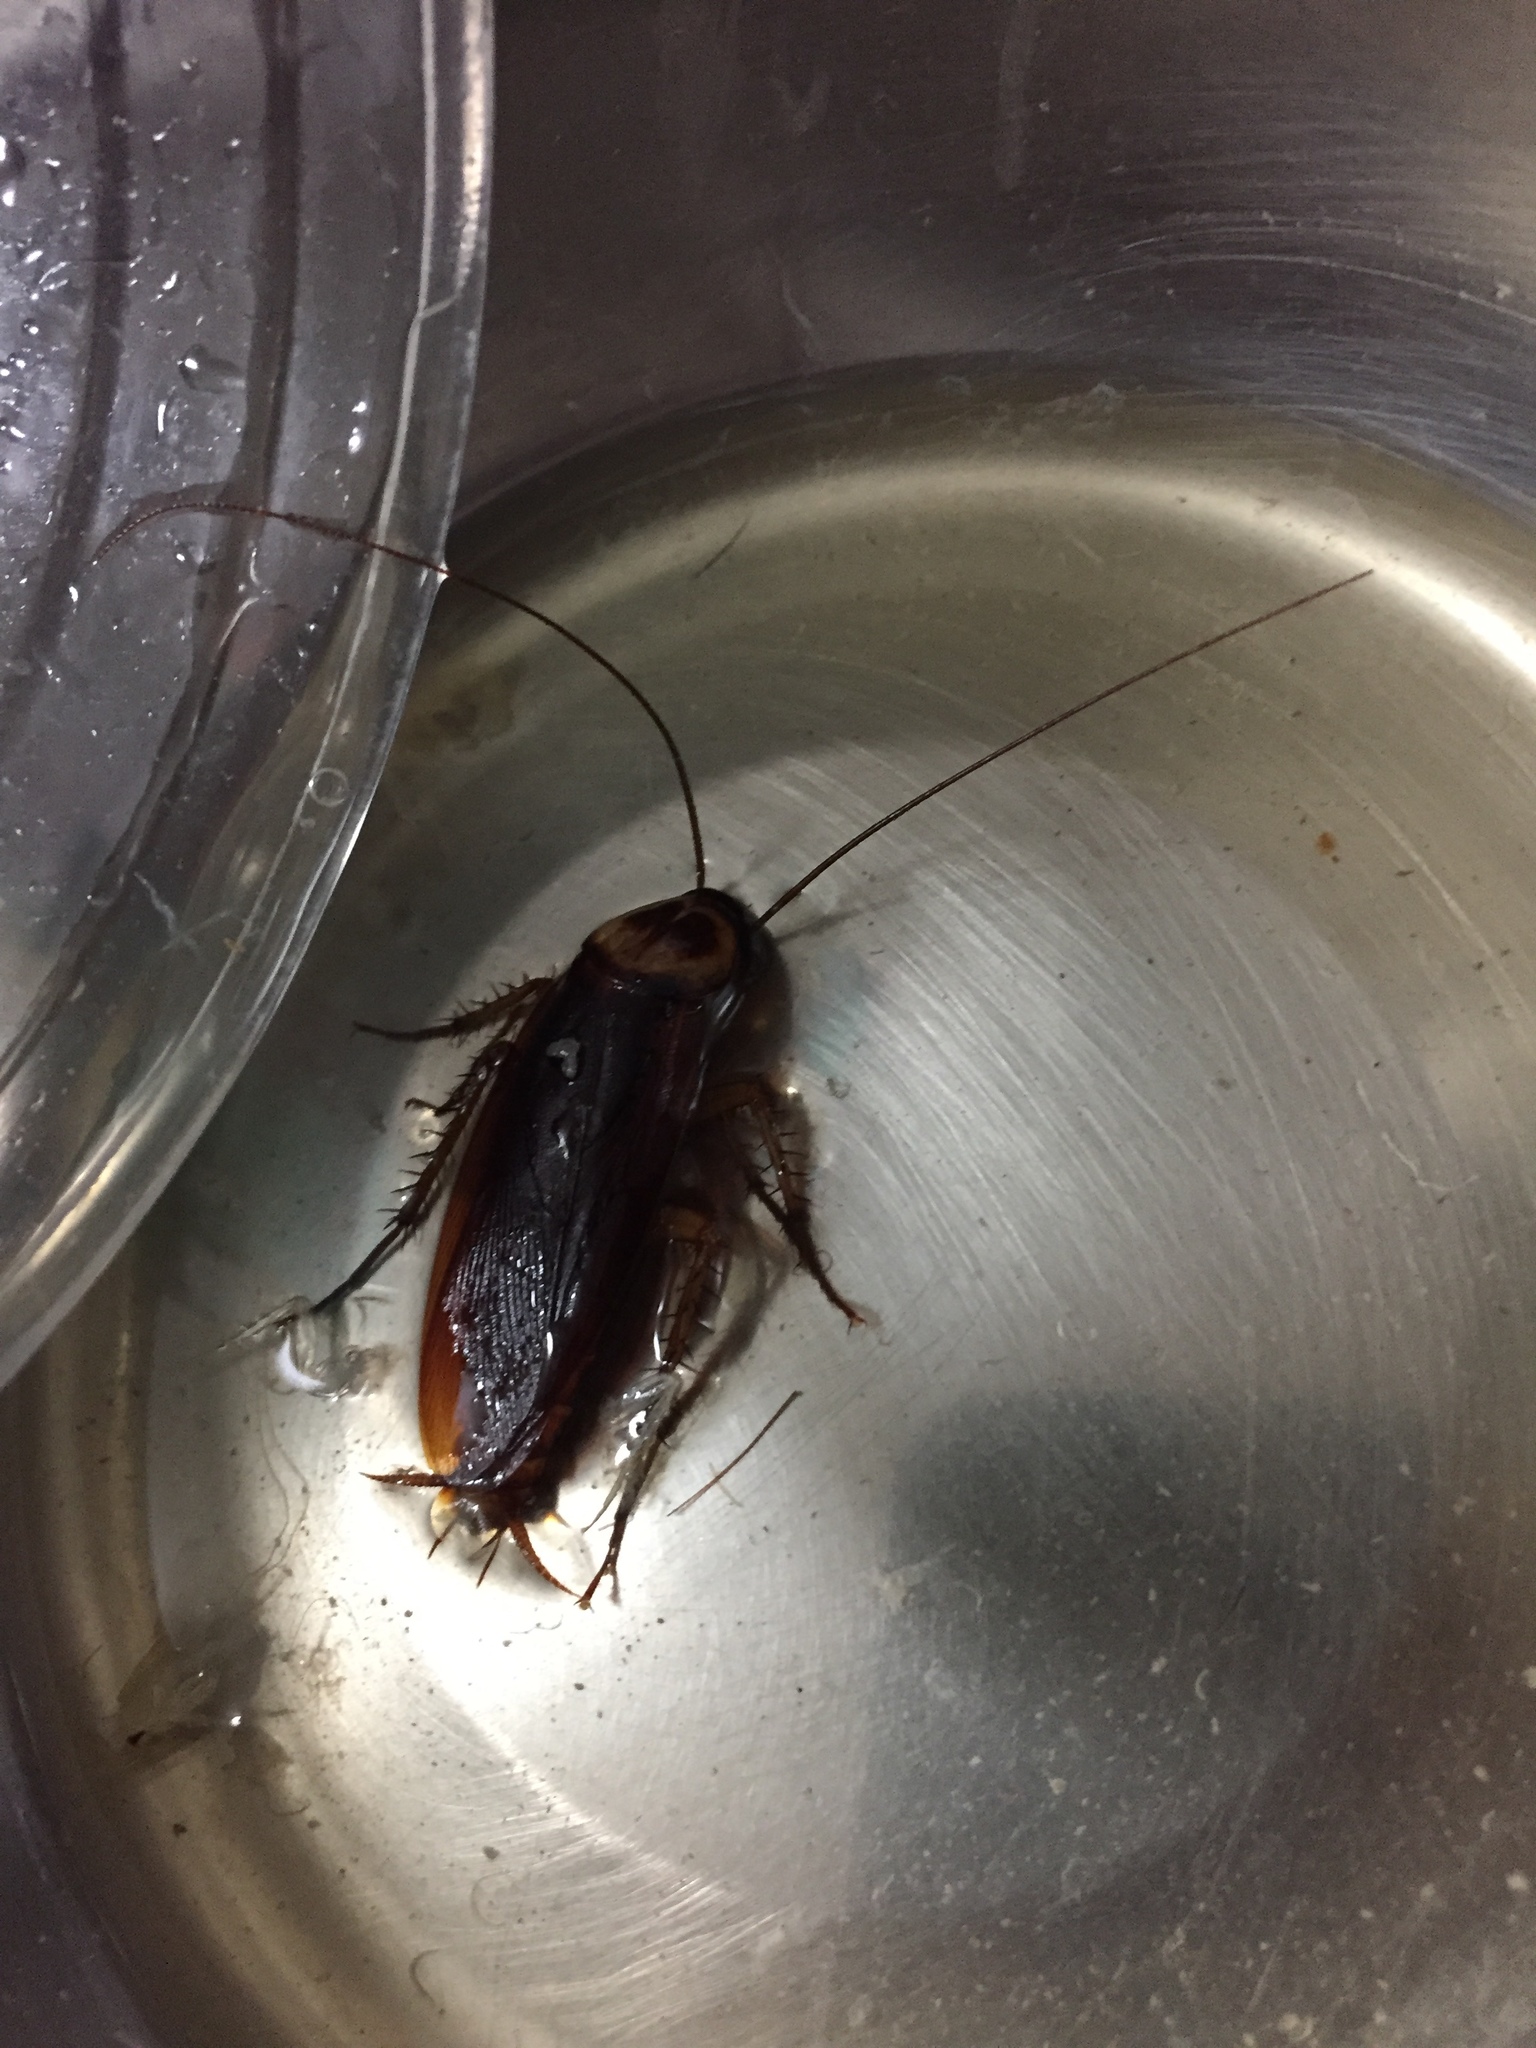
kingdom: Animalia
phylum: Arthropoda
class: Insecta
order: Blattodea
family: Blattidae
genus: Periplaneta
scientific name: Periplaneta americana
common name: American cockroach
